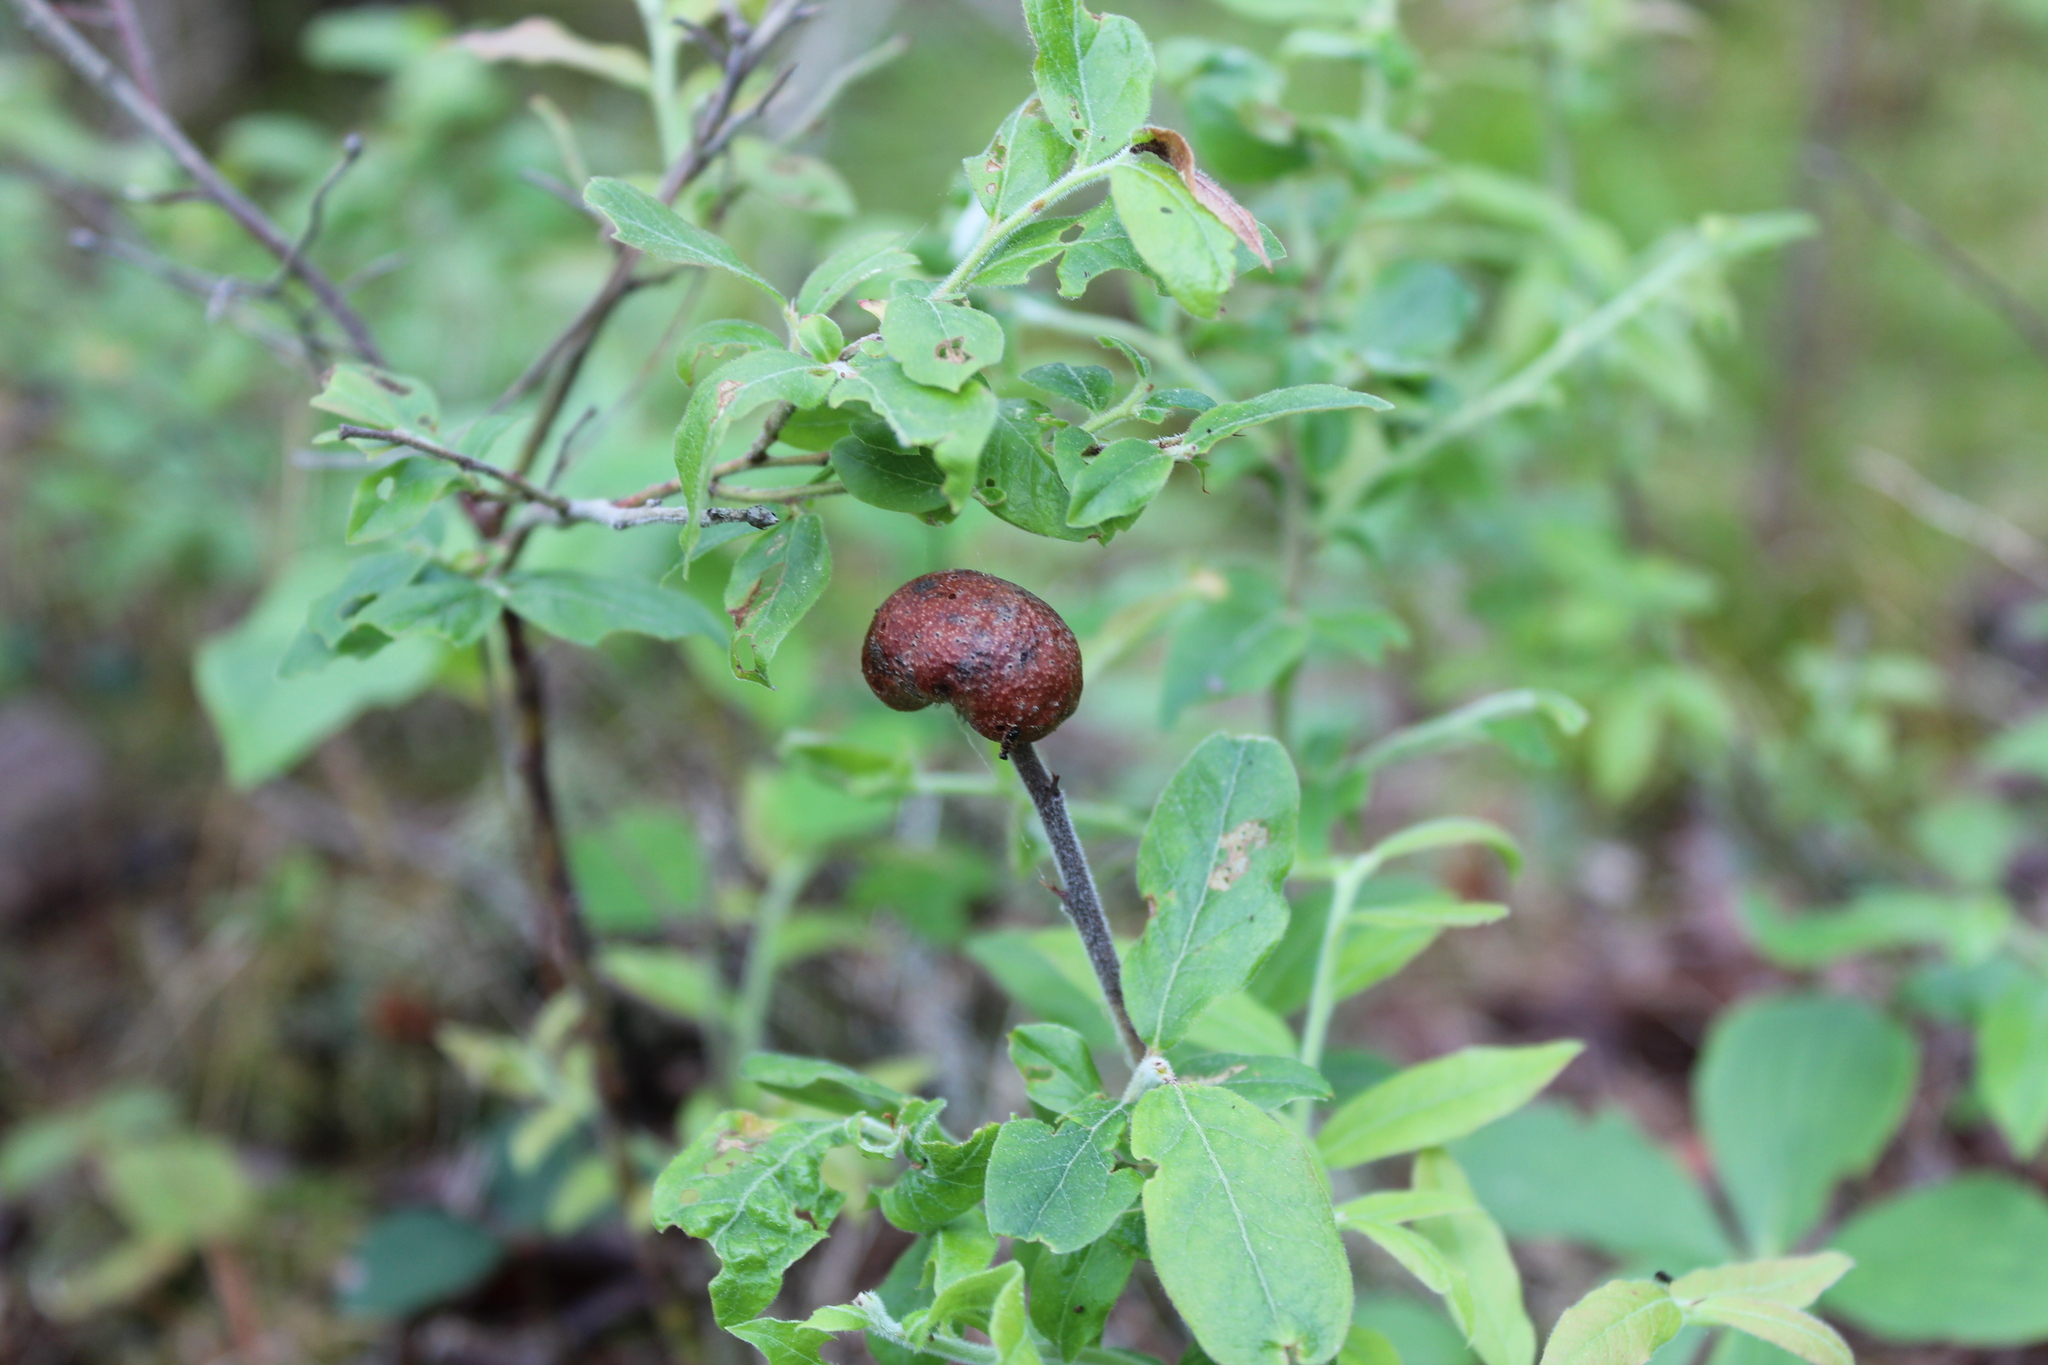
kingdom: Animalia
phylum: Arthropoda
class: Insecta
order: Hymenoptera
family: Pteromalidae
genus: Hemadas
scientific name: Hemadas nubilipennis
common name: Blueberry stem gall wasp
